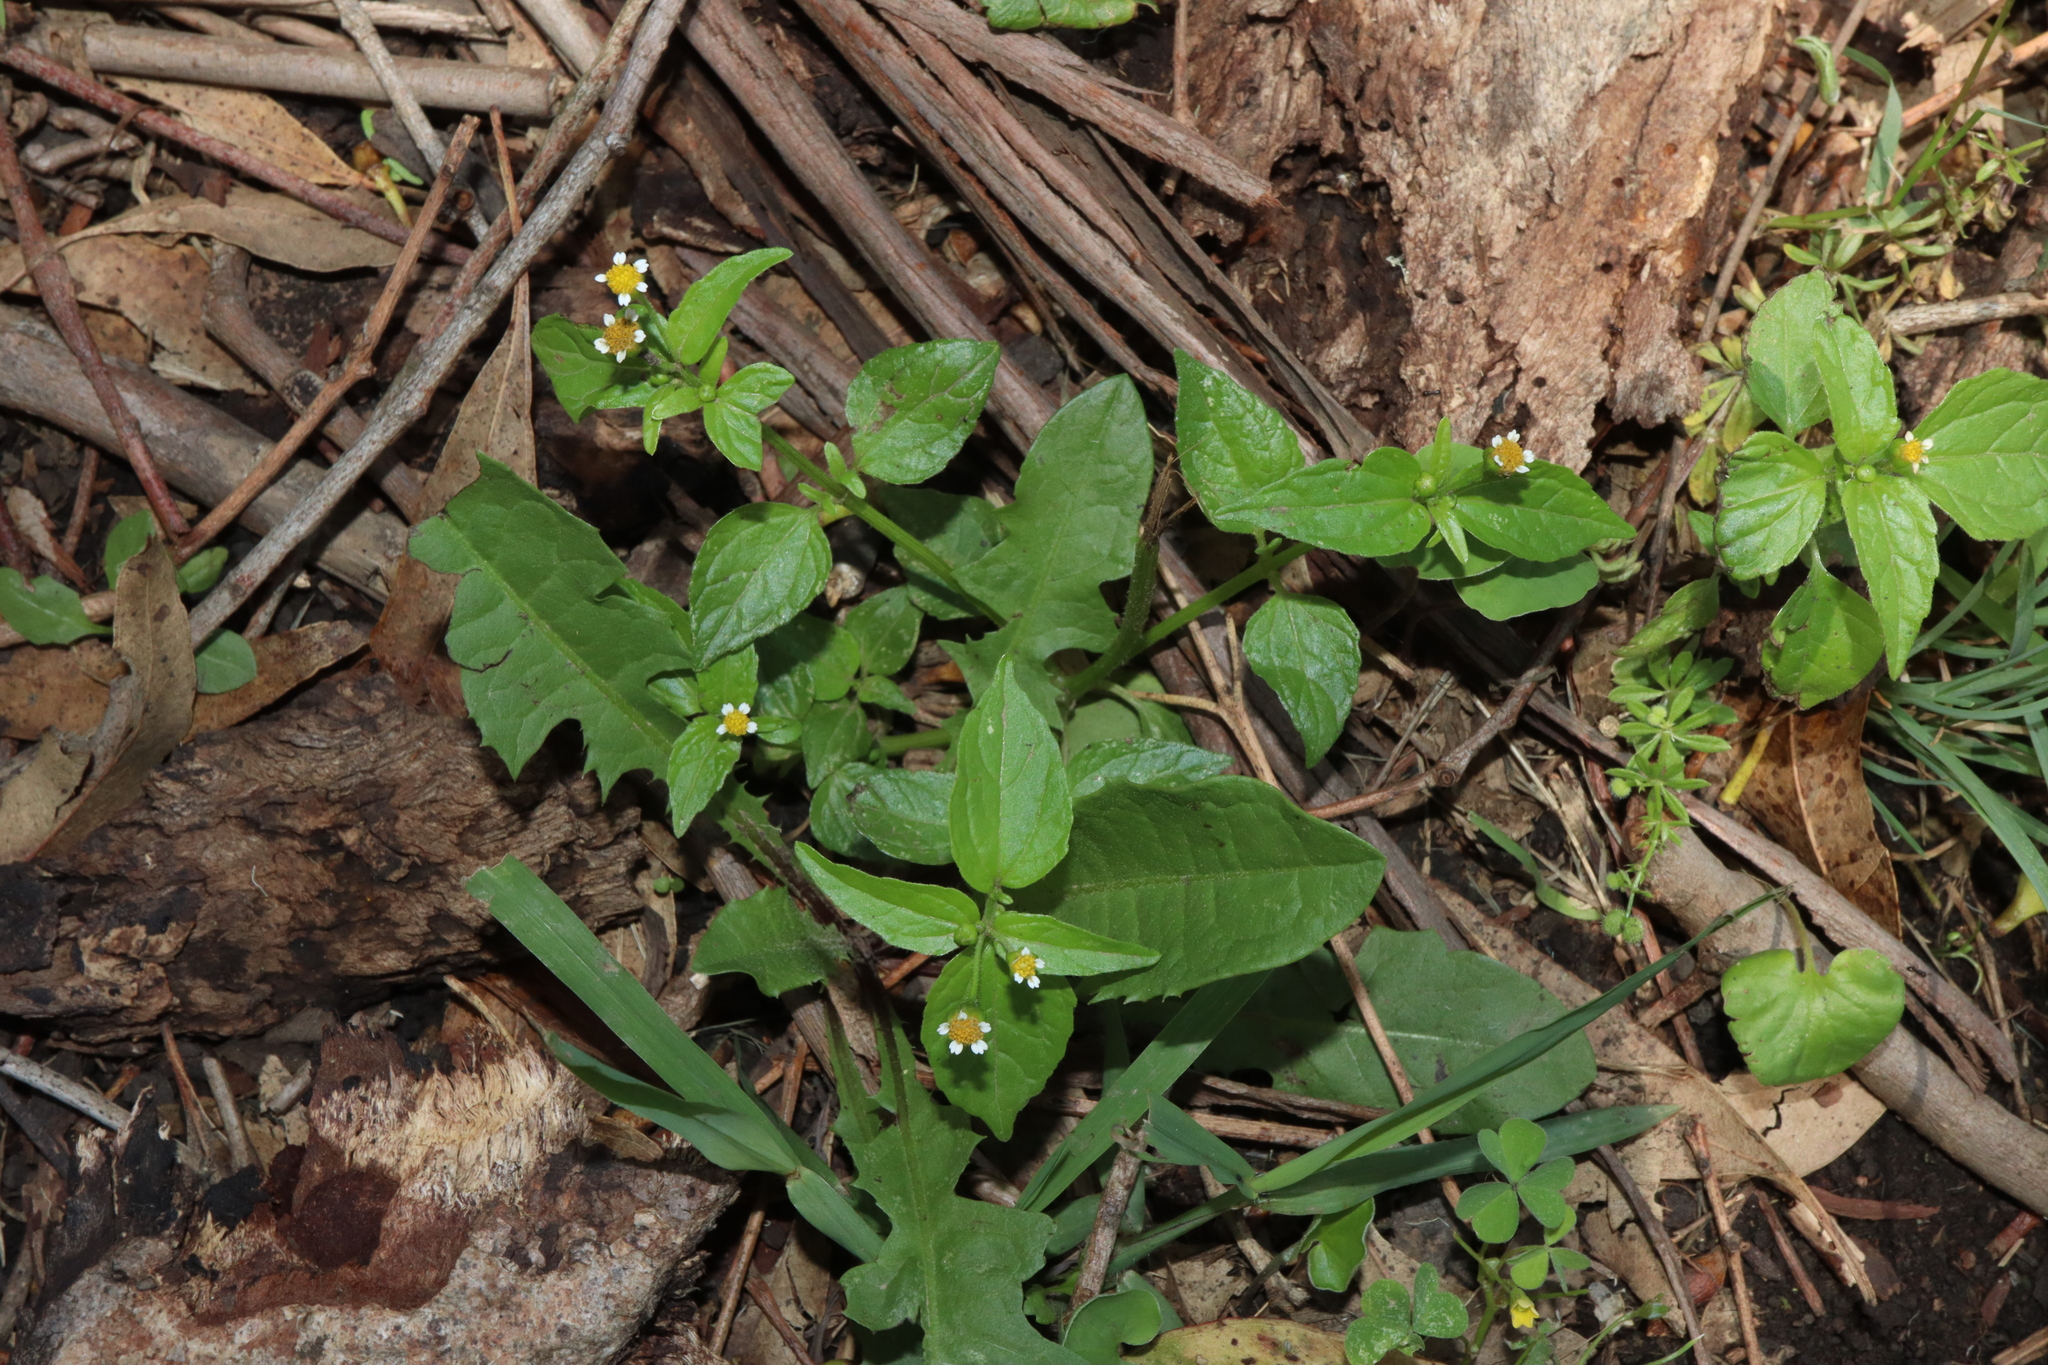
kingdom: Plantae
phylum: Tracheophyta
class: Magnoliopsida
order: Asterales
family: Asteraceae
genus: Galinsoga
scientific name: Galinsoga parviflora
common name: Gallant soldier
